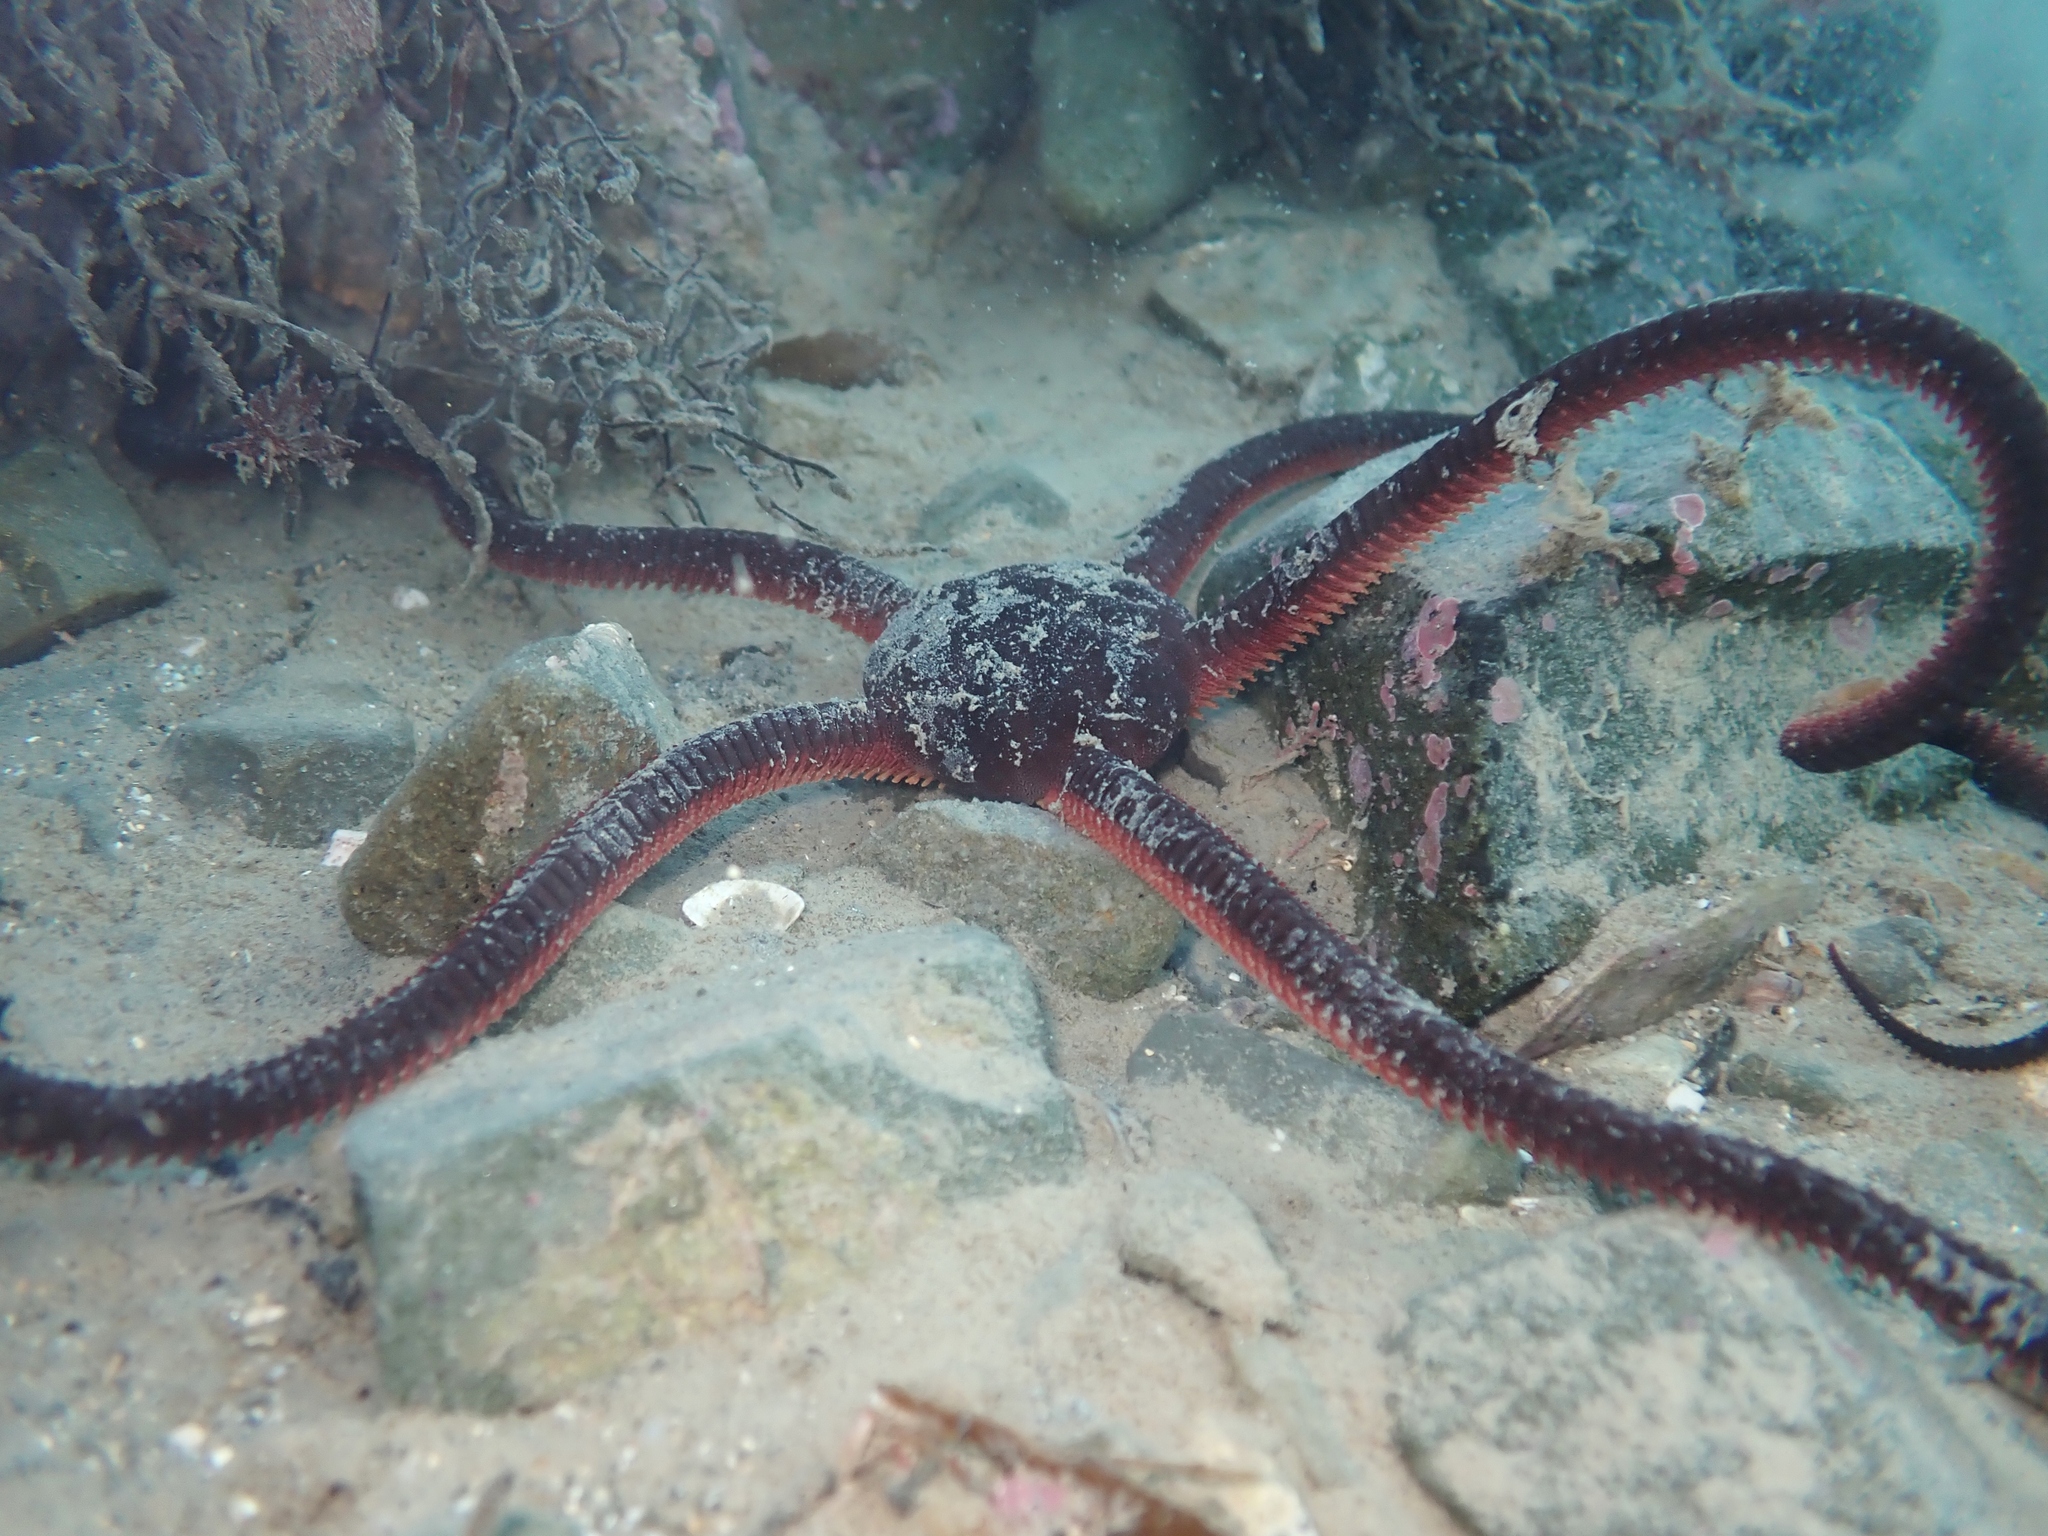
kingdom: Animalia
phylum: Echinodermata
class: Ophiuroidea
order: Ophiacanthida
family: Ophiodermatidae
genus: Ophiopsammus
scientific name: Ophiopsammus maculata
